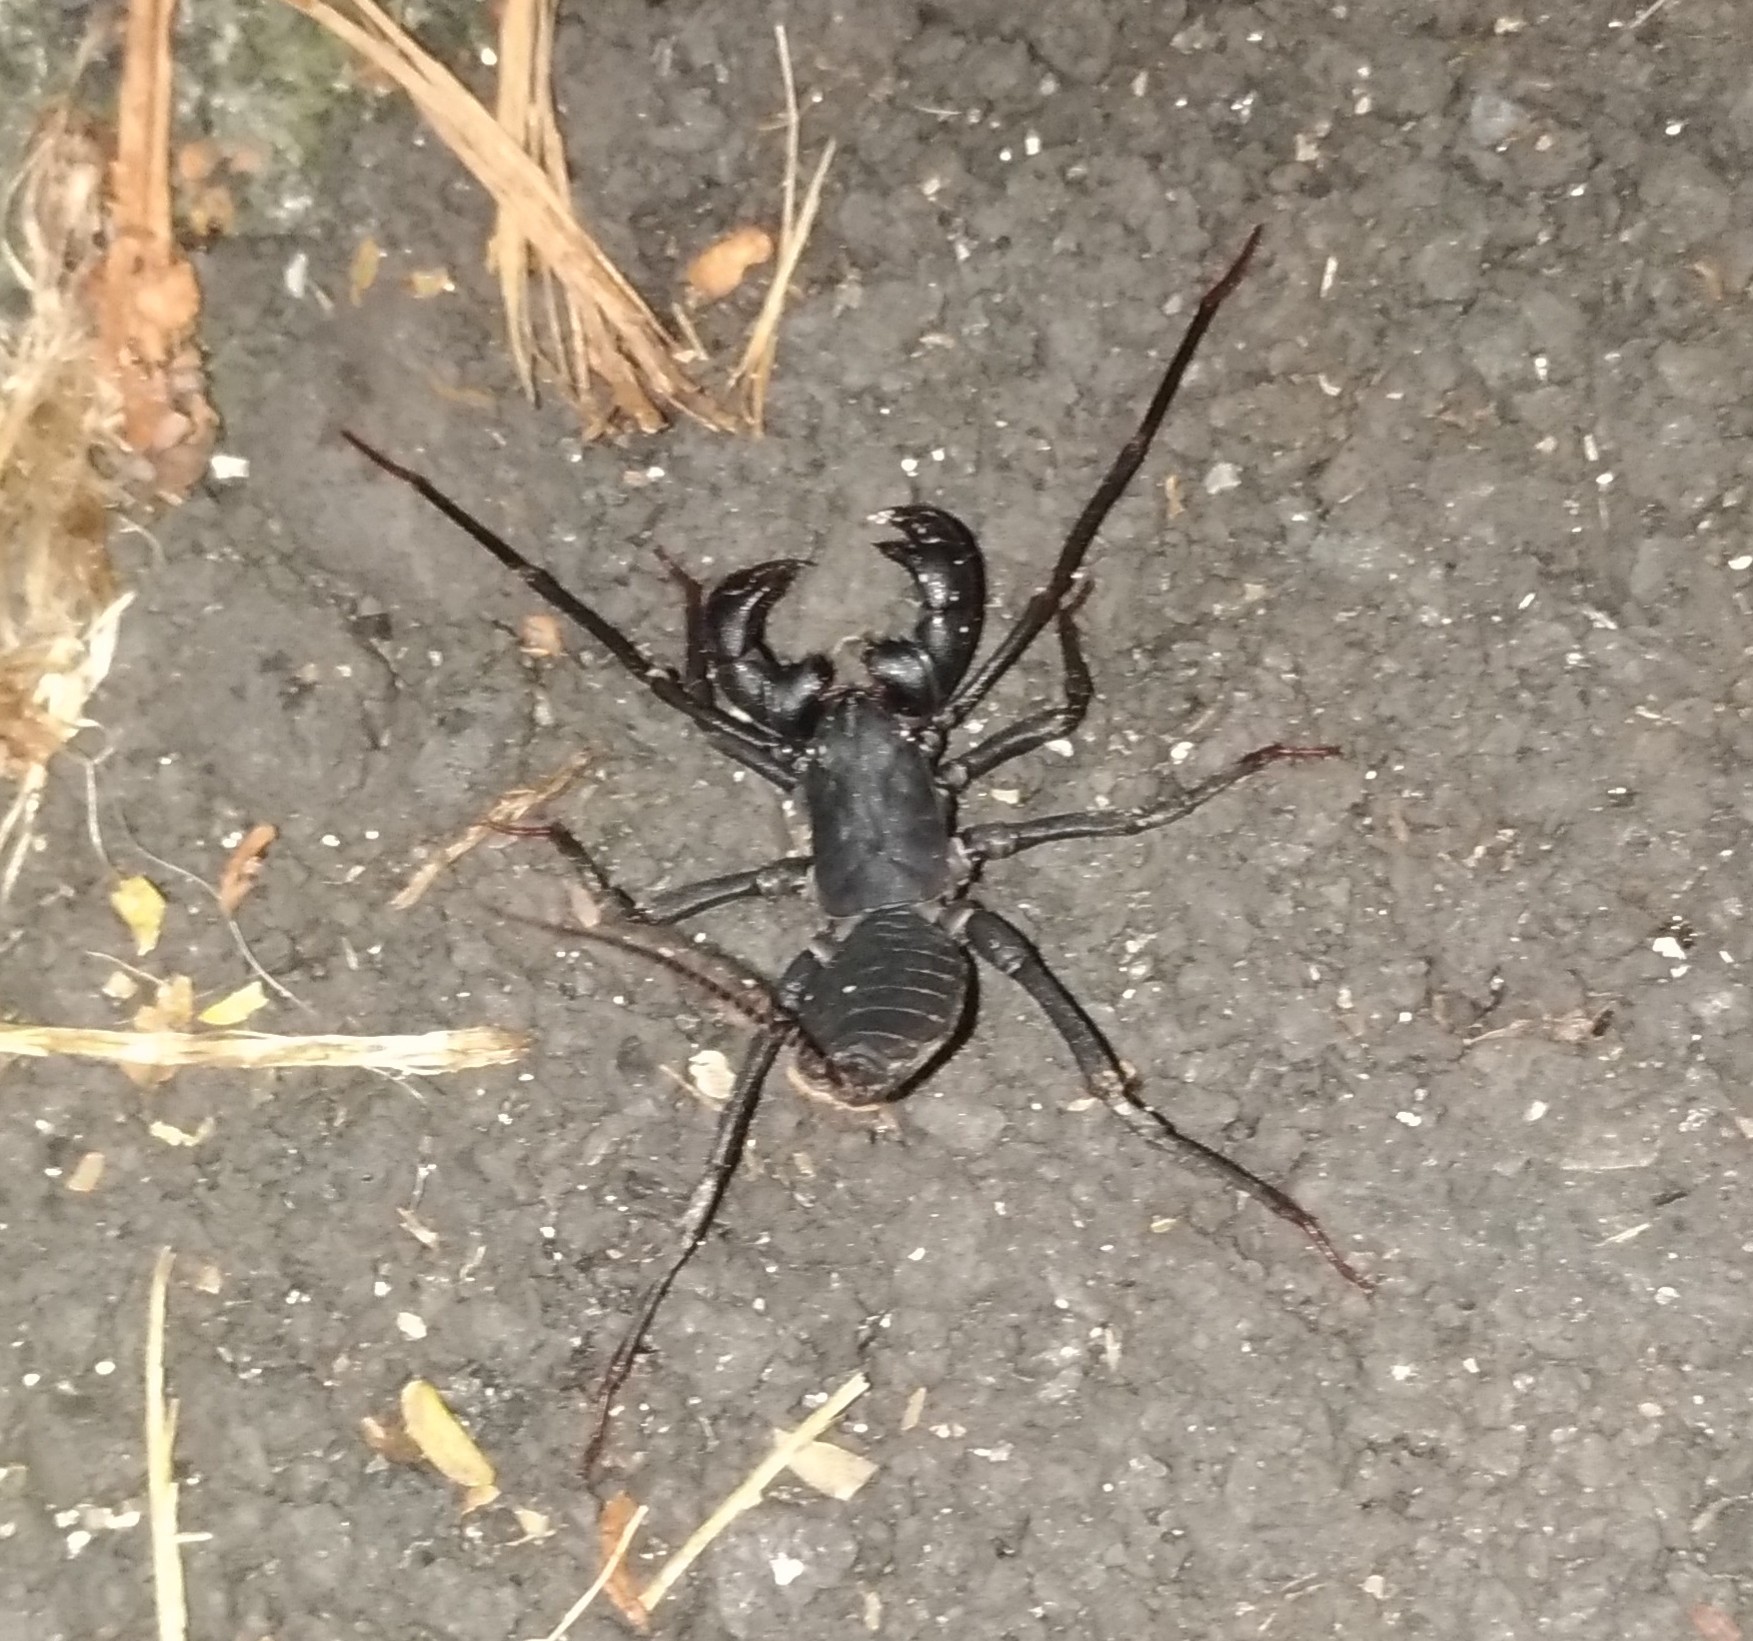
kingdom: Animalia
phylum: Arthropoda
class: Arachnida
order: Uropygi
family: Thelyphonidae
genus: Typopeltis
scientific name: Typopeltis crucifer
